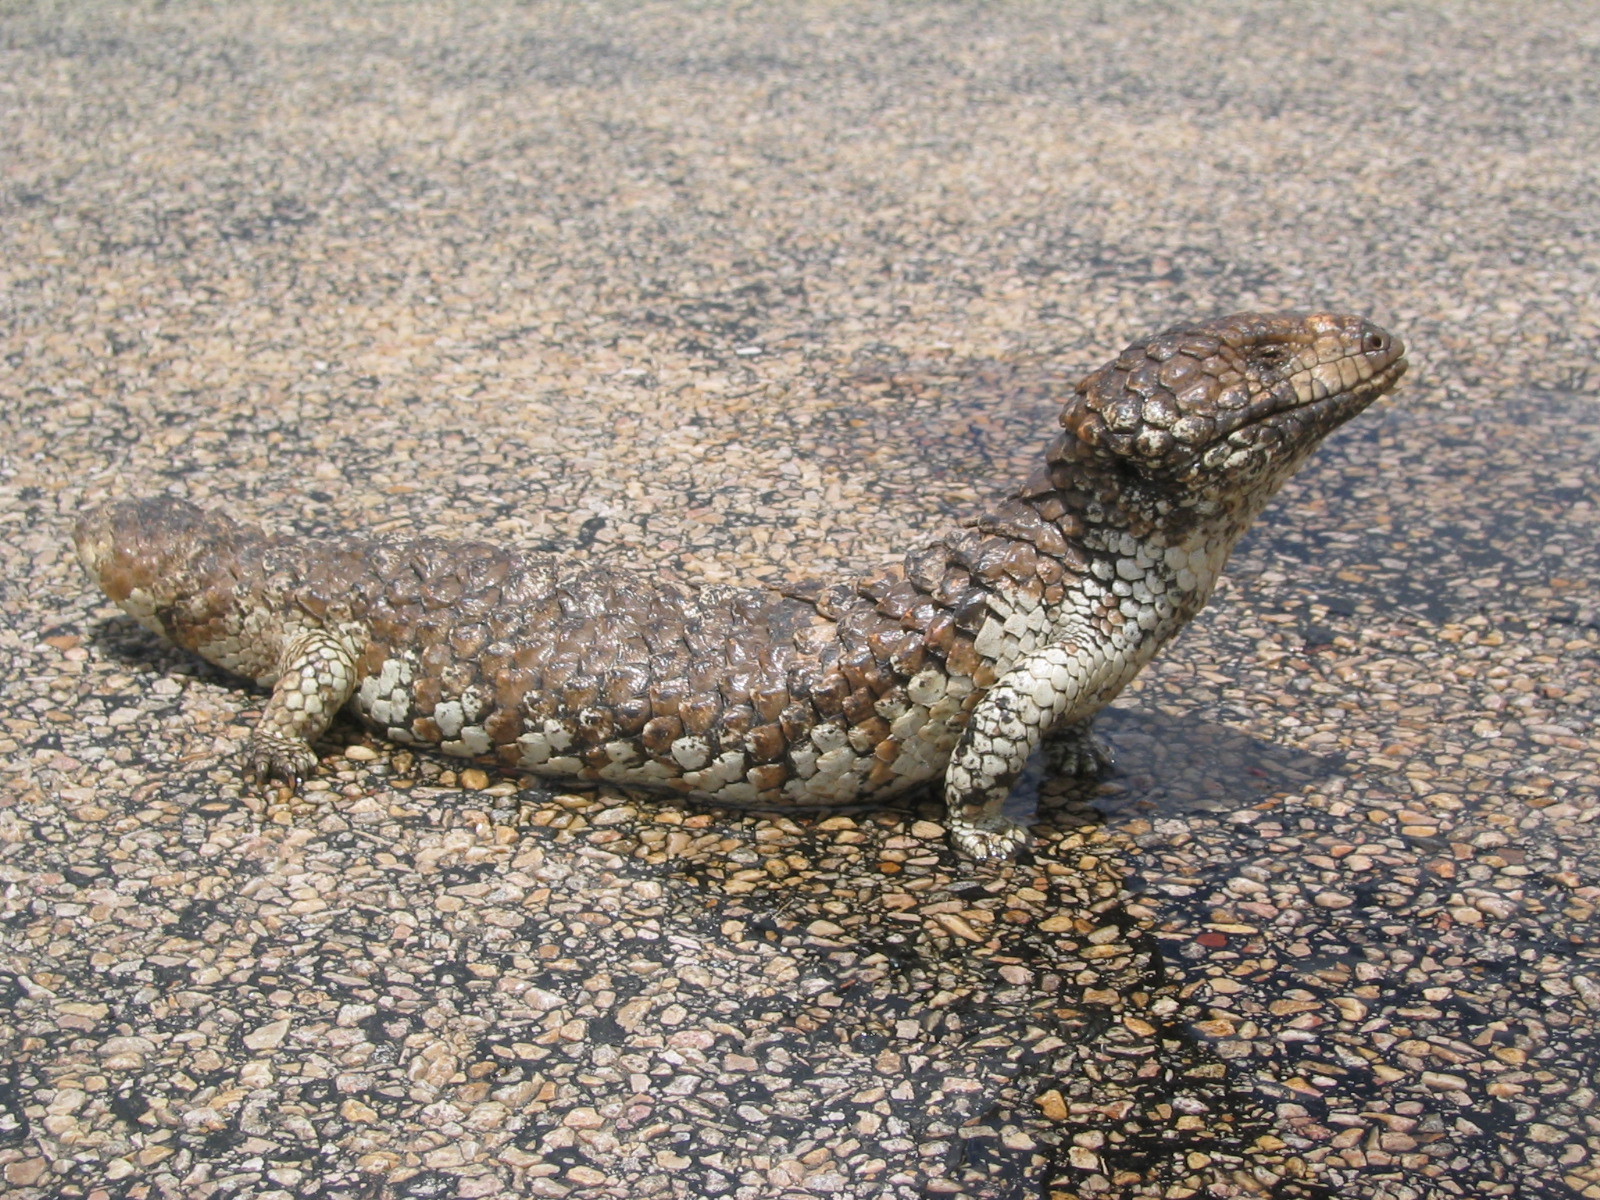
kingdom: Animalia
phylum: Chordata
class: Squamata
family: Scincidae
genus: Tiliqua
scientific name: Tiliqua rugosa
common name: Pinecone lizard
